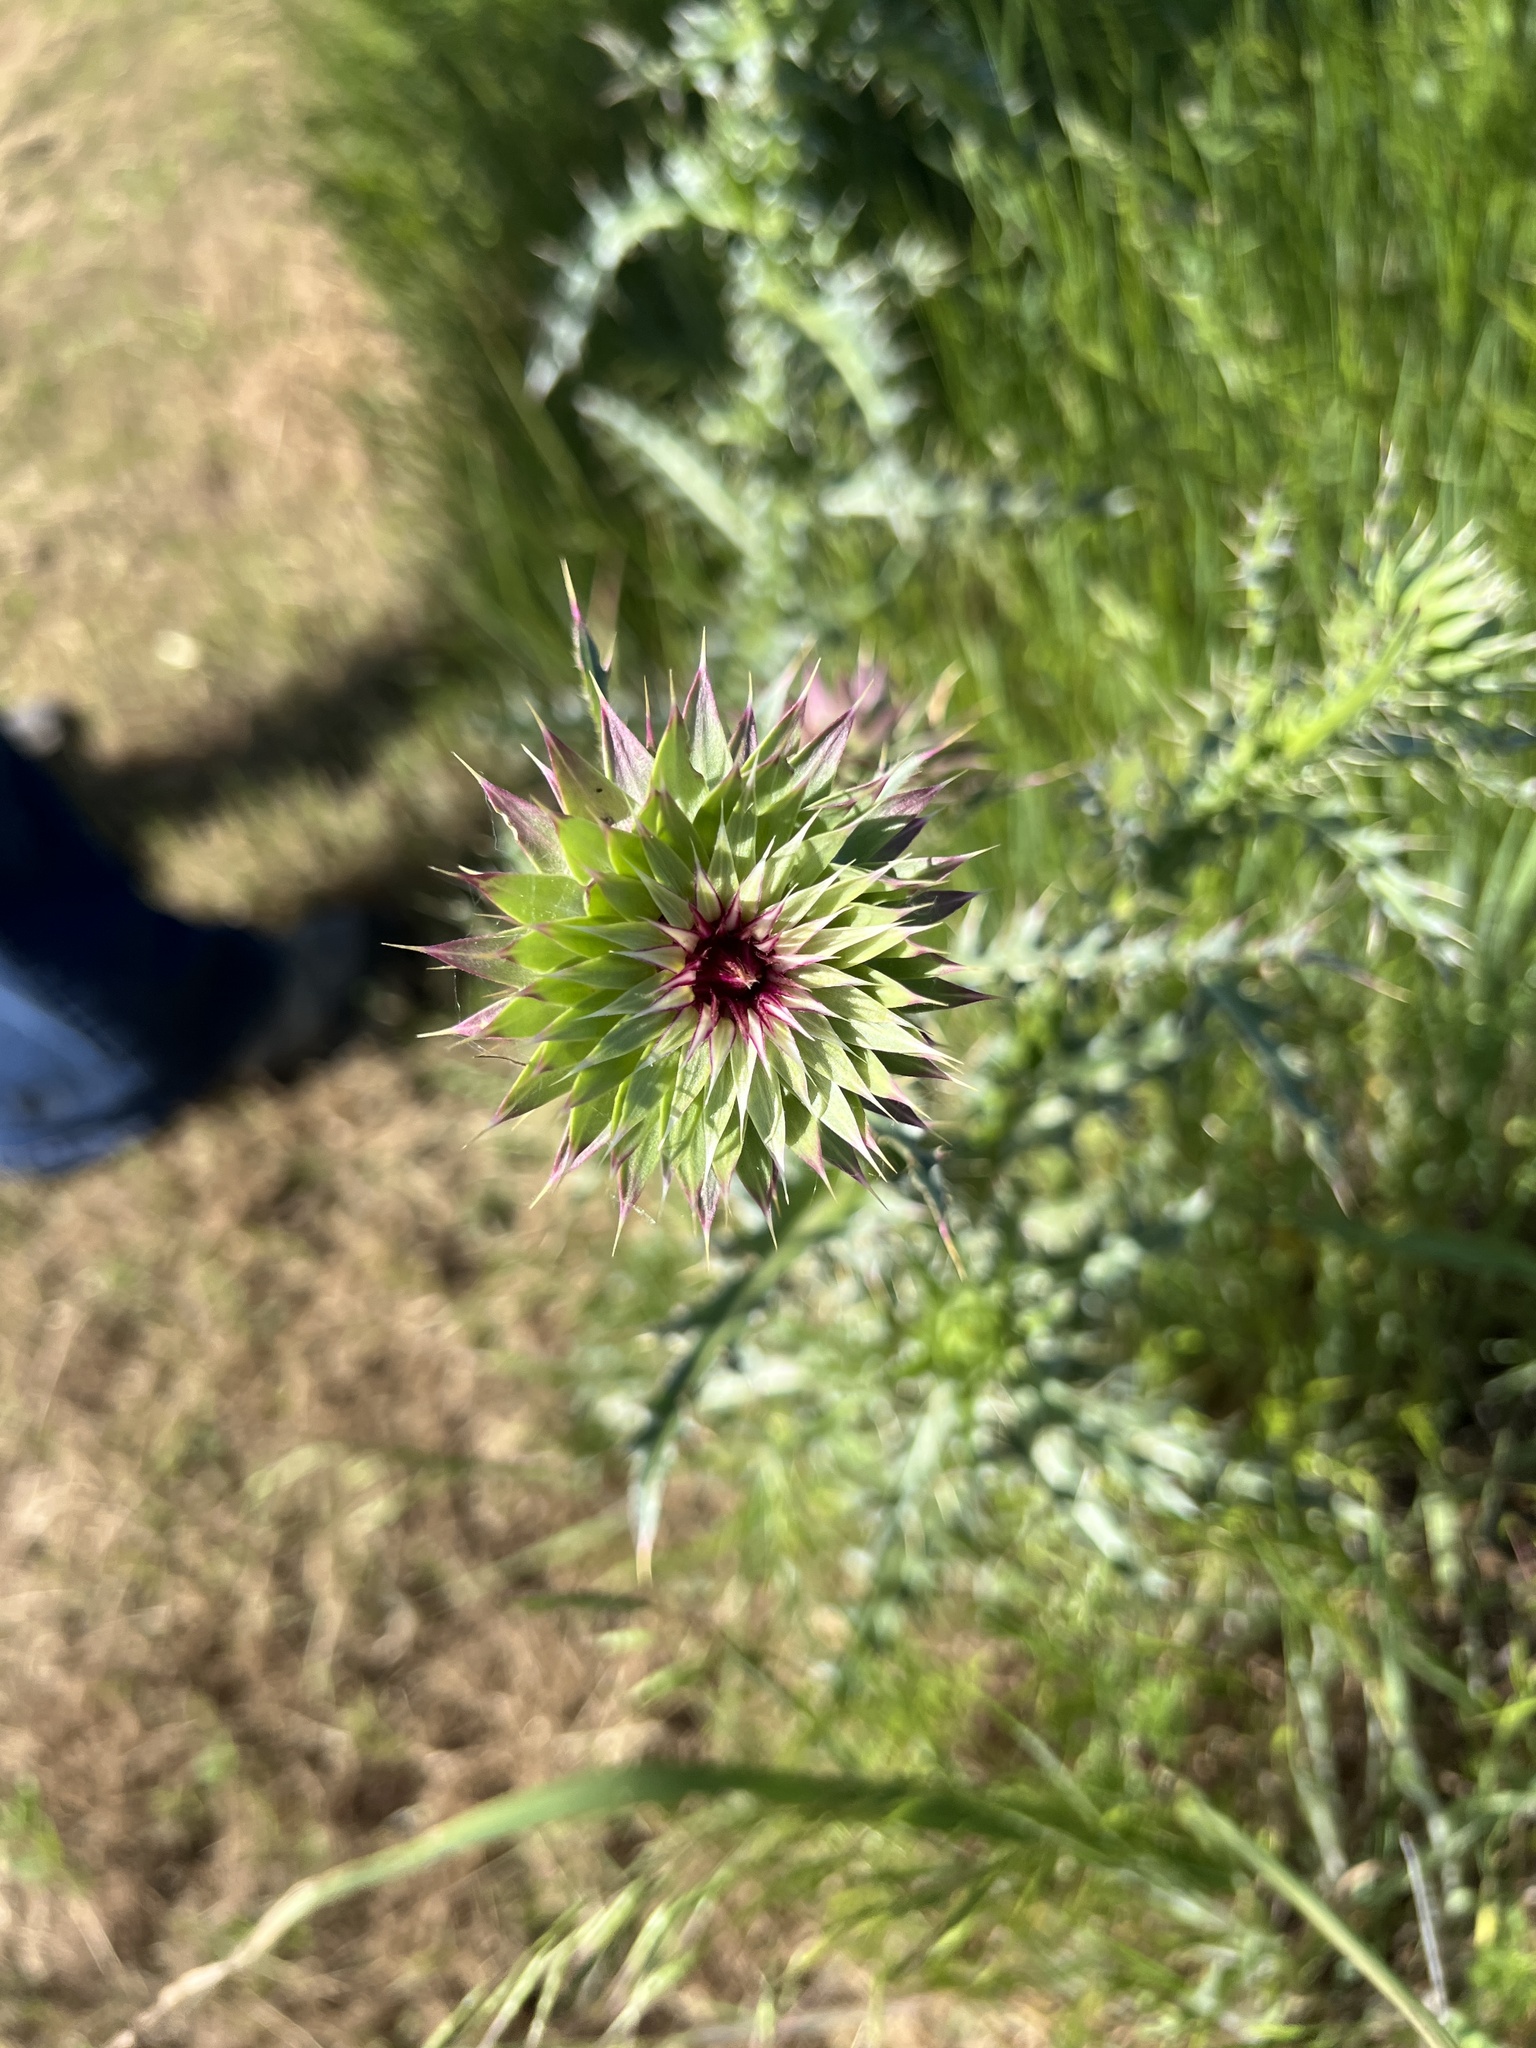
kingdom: Plantae
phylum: Tracheophyta
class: Magnoliopsida
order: Asterales
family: Asteraceae
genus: Carduus
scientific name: Carduus nutans
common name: Musk thistle
